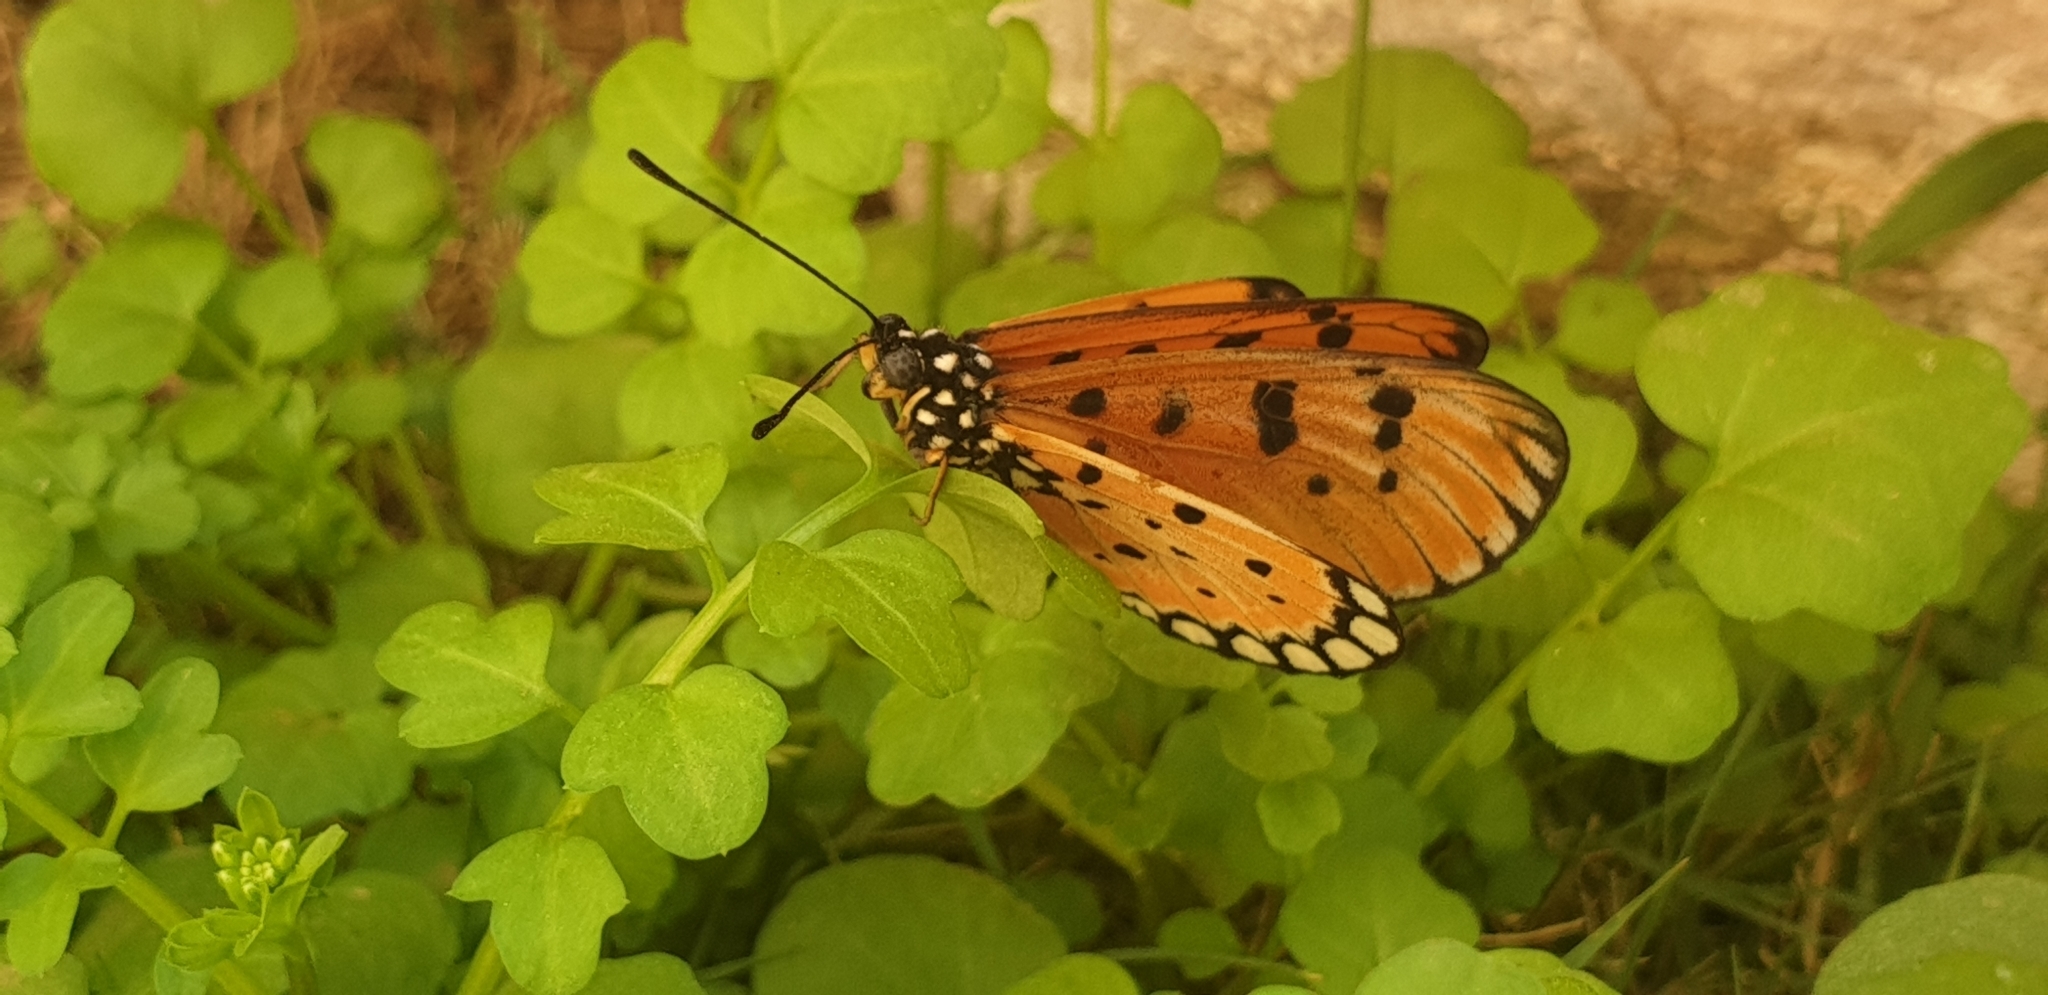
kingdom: Animalia
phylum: Arthropoda
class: Insecta
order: Lepidoptera
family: Nymphalidae
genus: Acraea
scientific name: Acraea terpsicore
